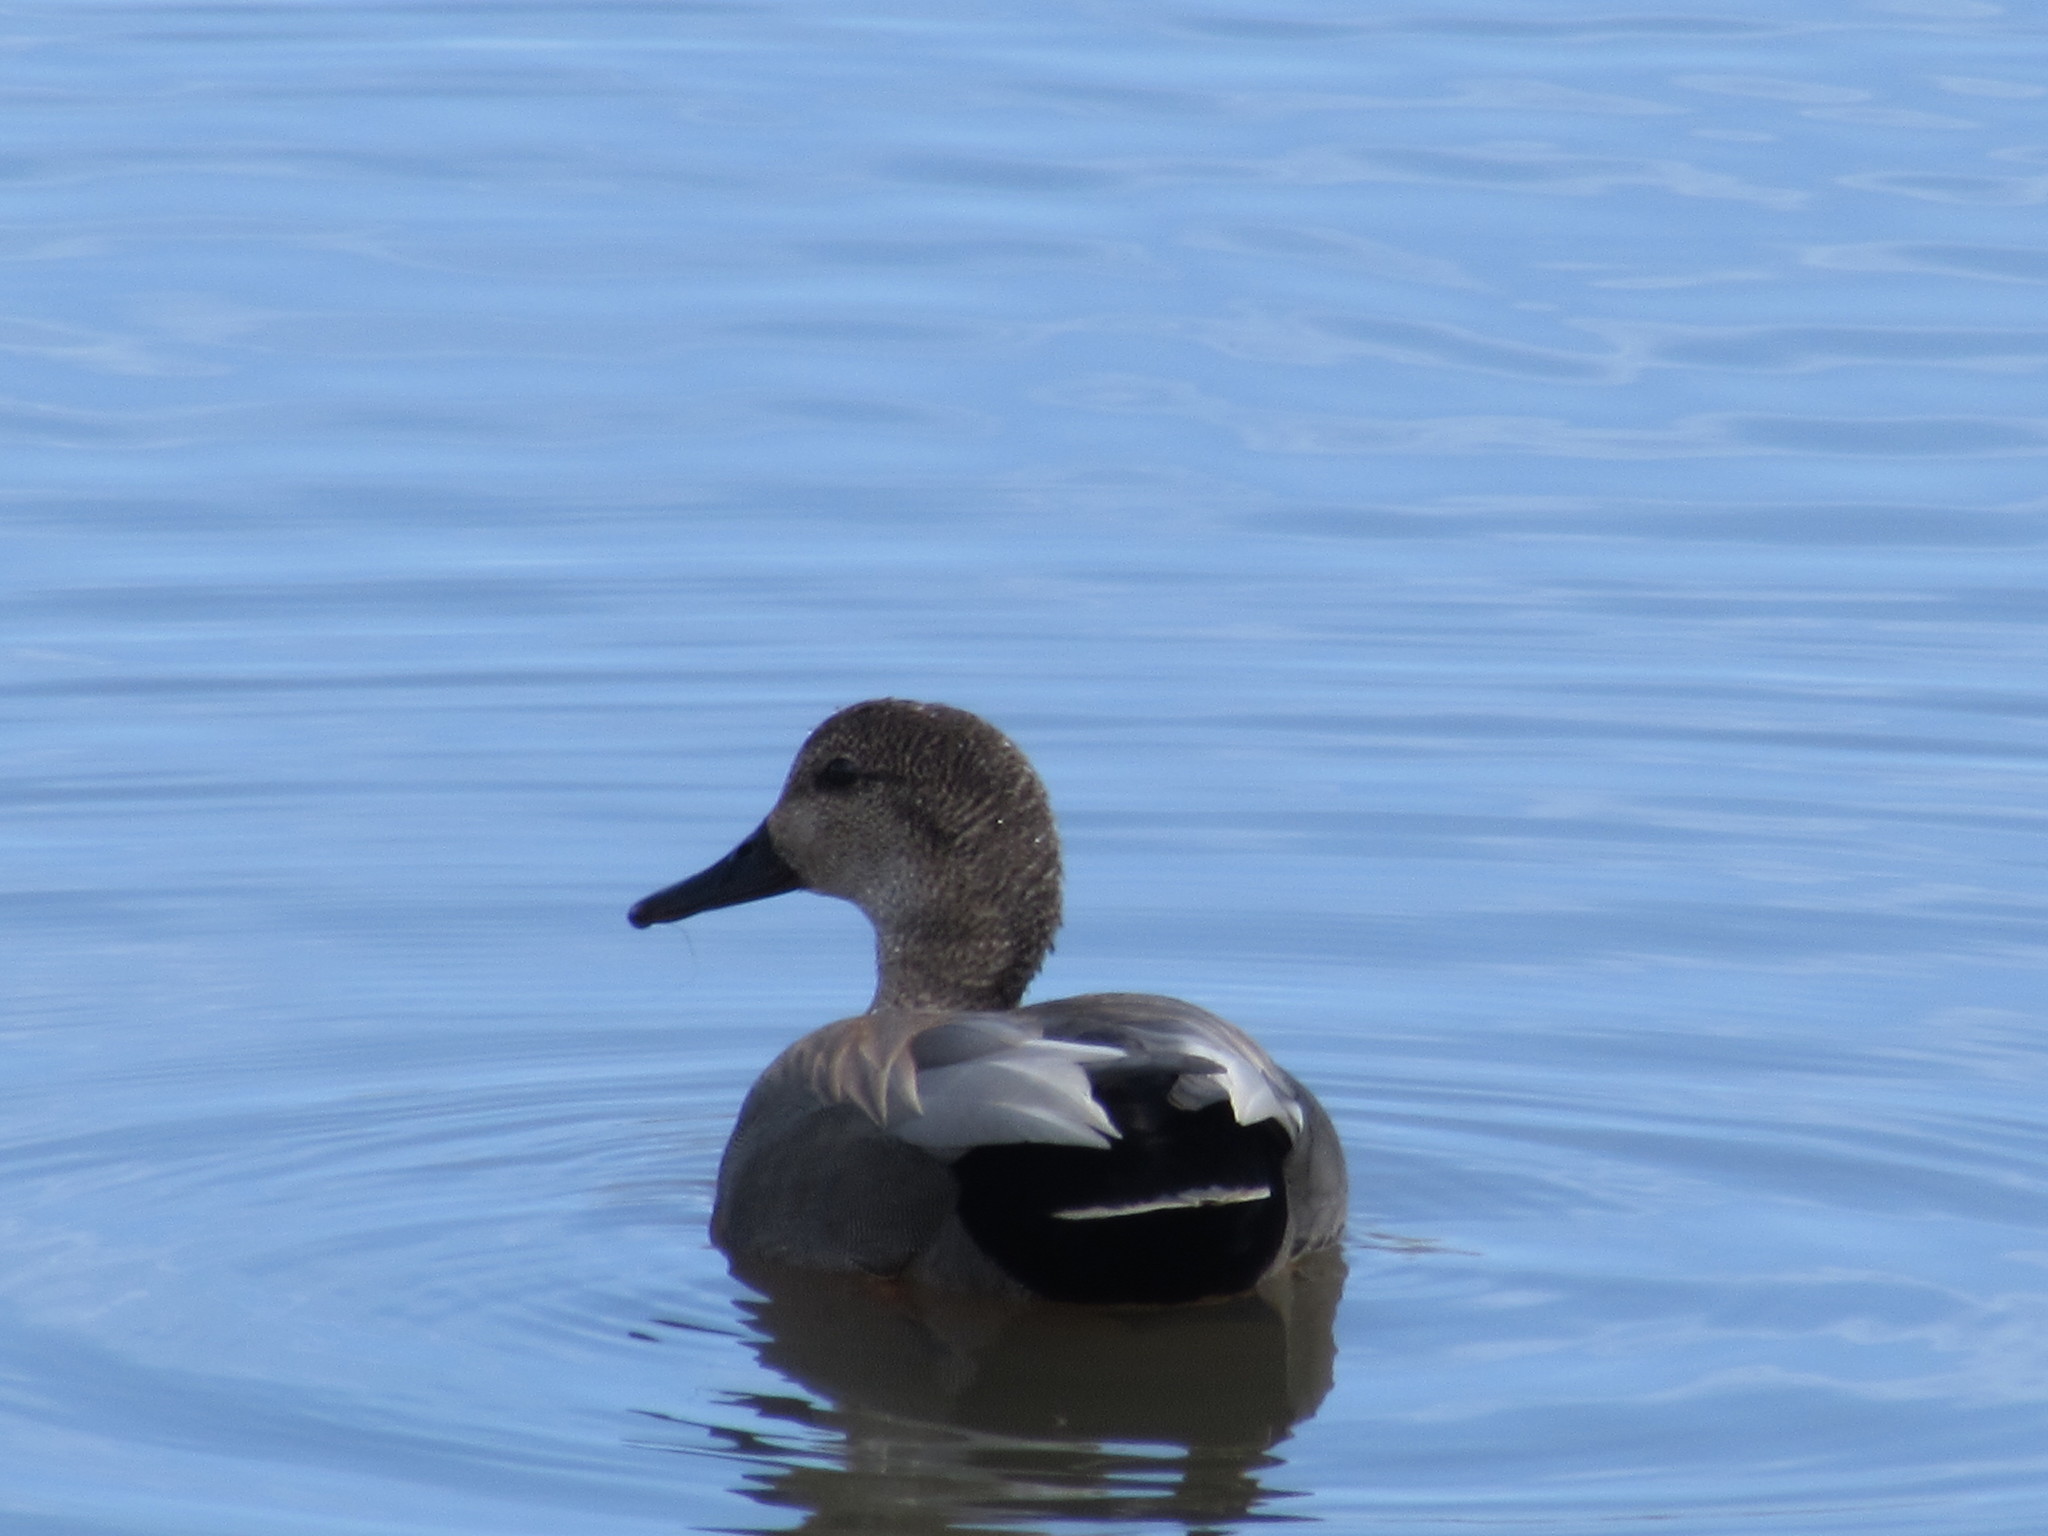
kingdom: Animalia
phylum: Chordata
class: Aves
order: Anseriformes
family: Anatidae
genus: Mareca
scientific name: Mareca strepera
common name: Gadwall
